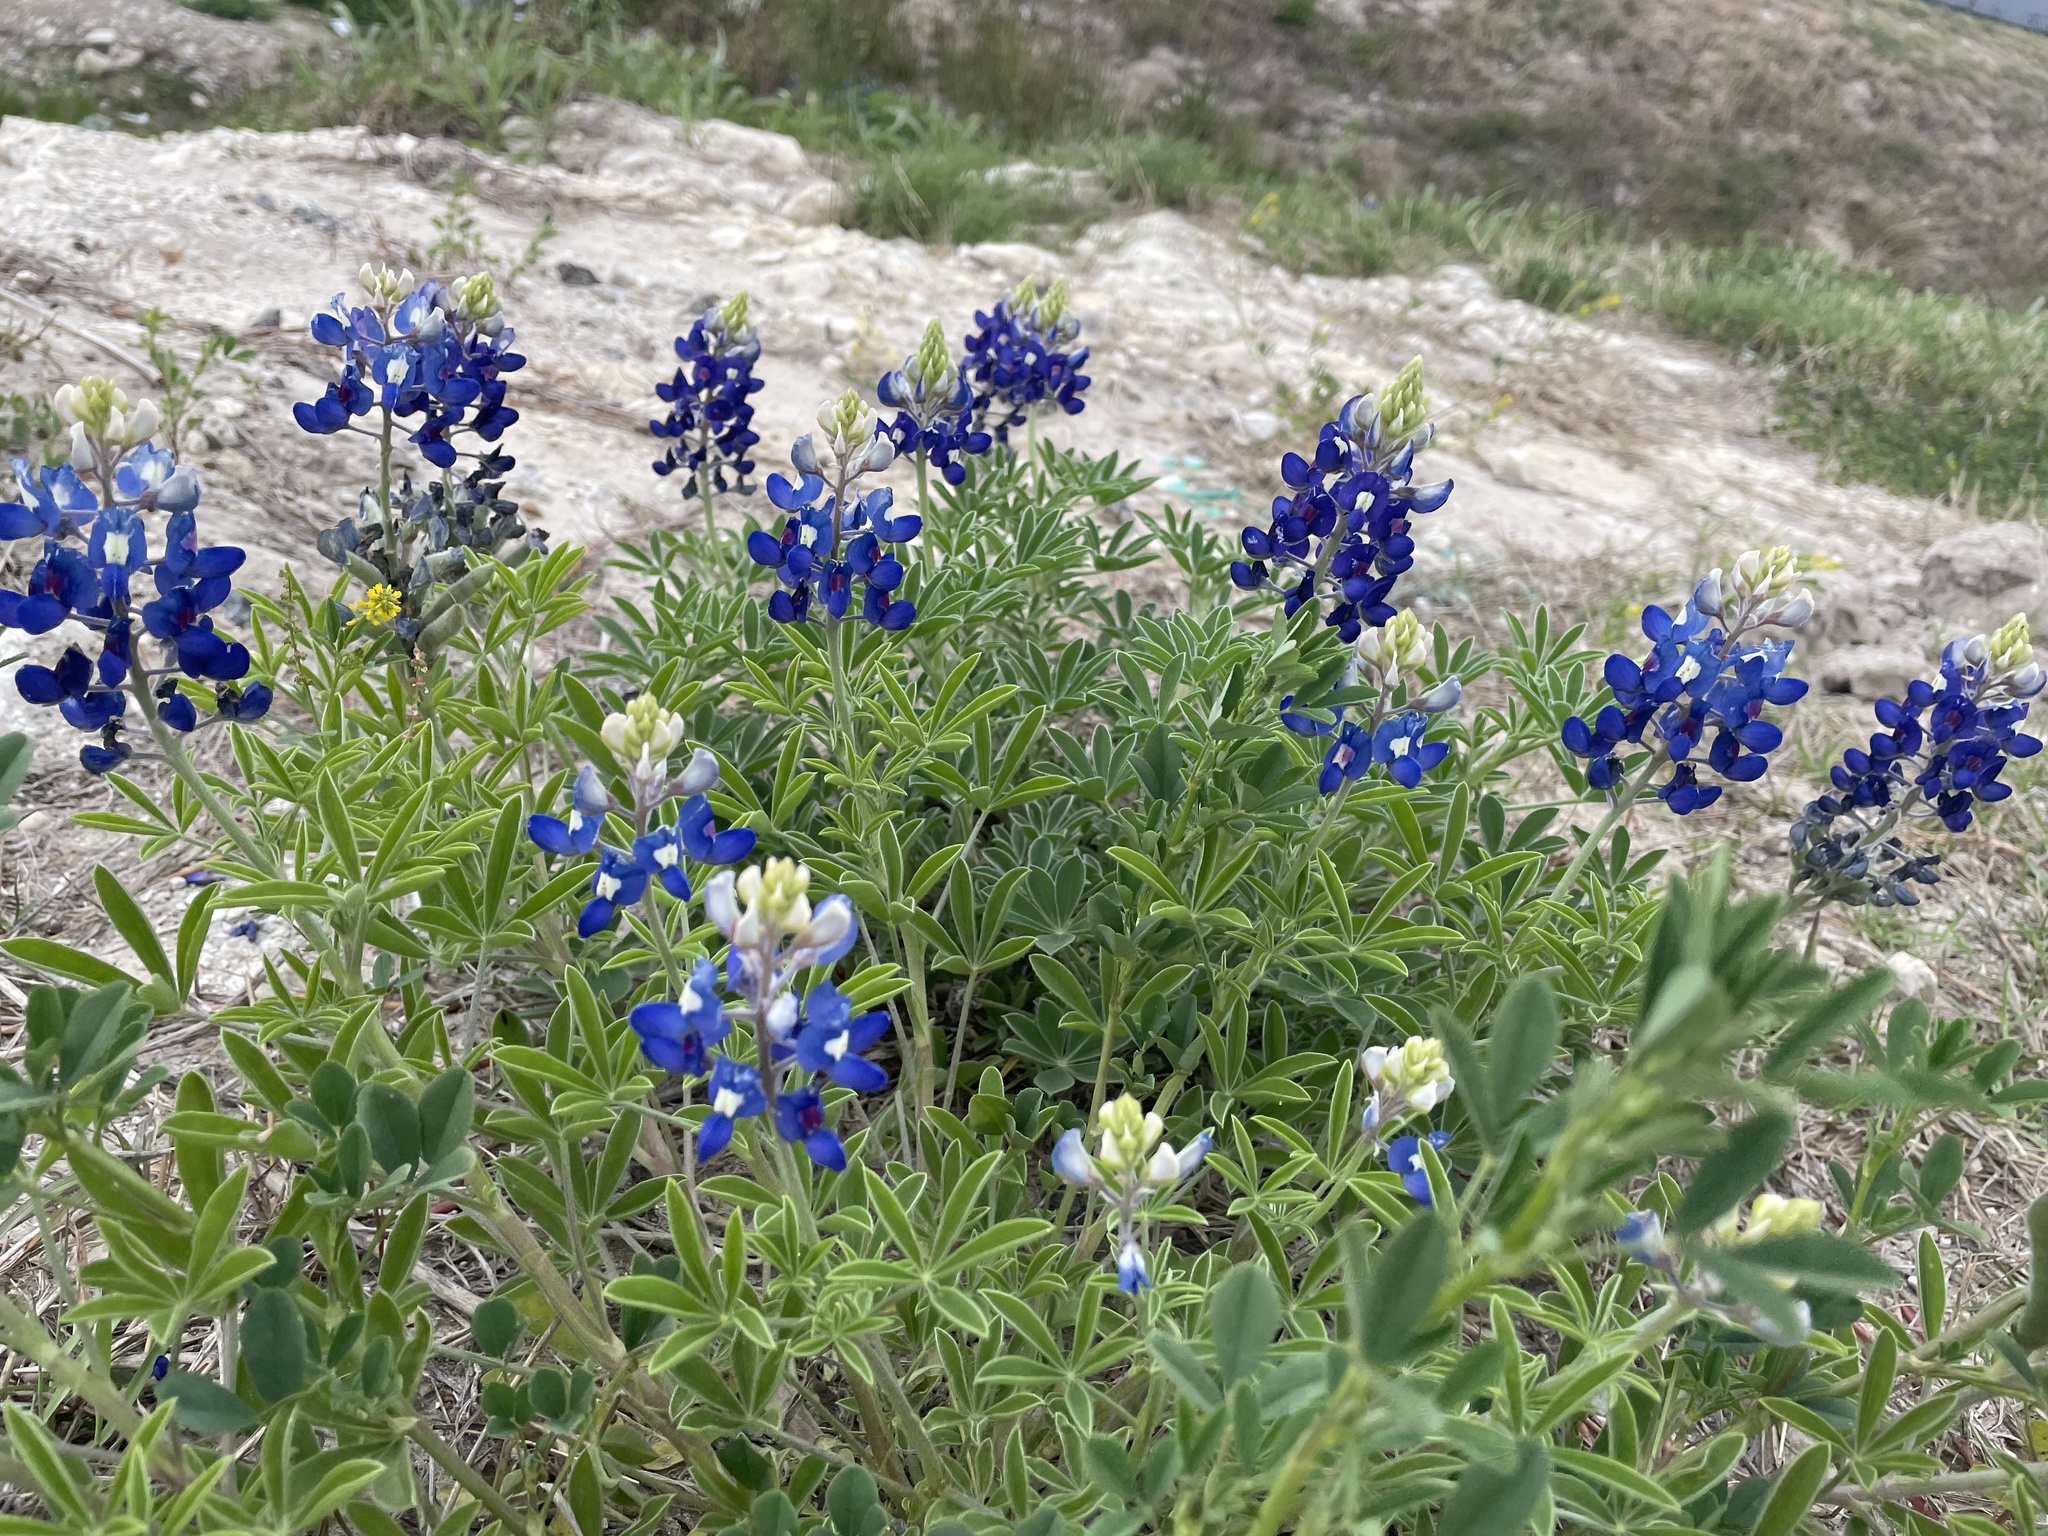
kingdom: Plantae
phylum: Tracheophyta
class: Magnoliopsida
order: Fabales
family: Fabaceae
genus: Lupinus
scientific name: Lupinus texensis
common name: Texas bluebonnet
